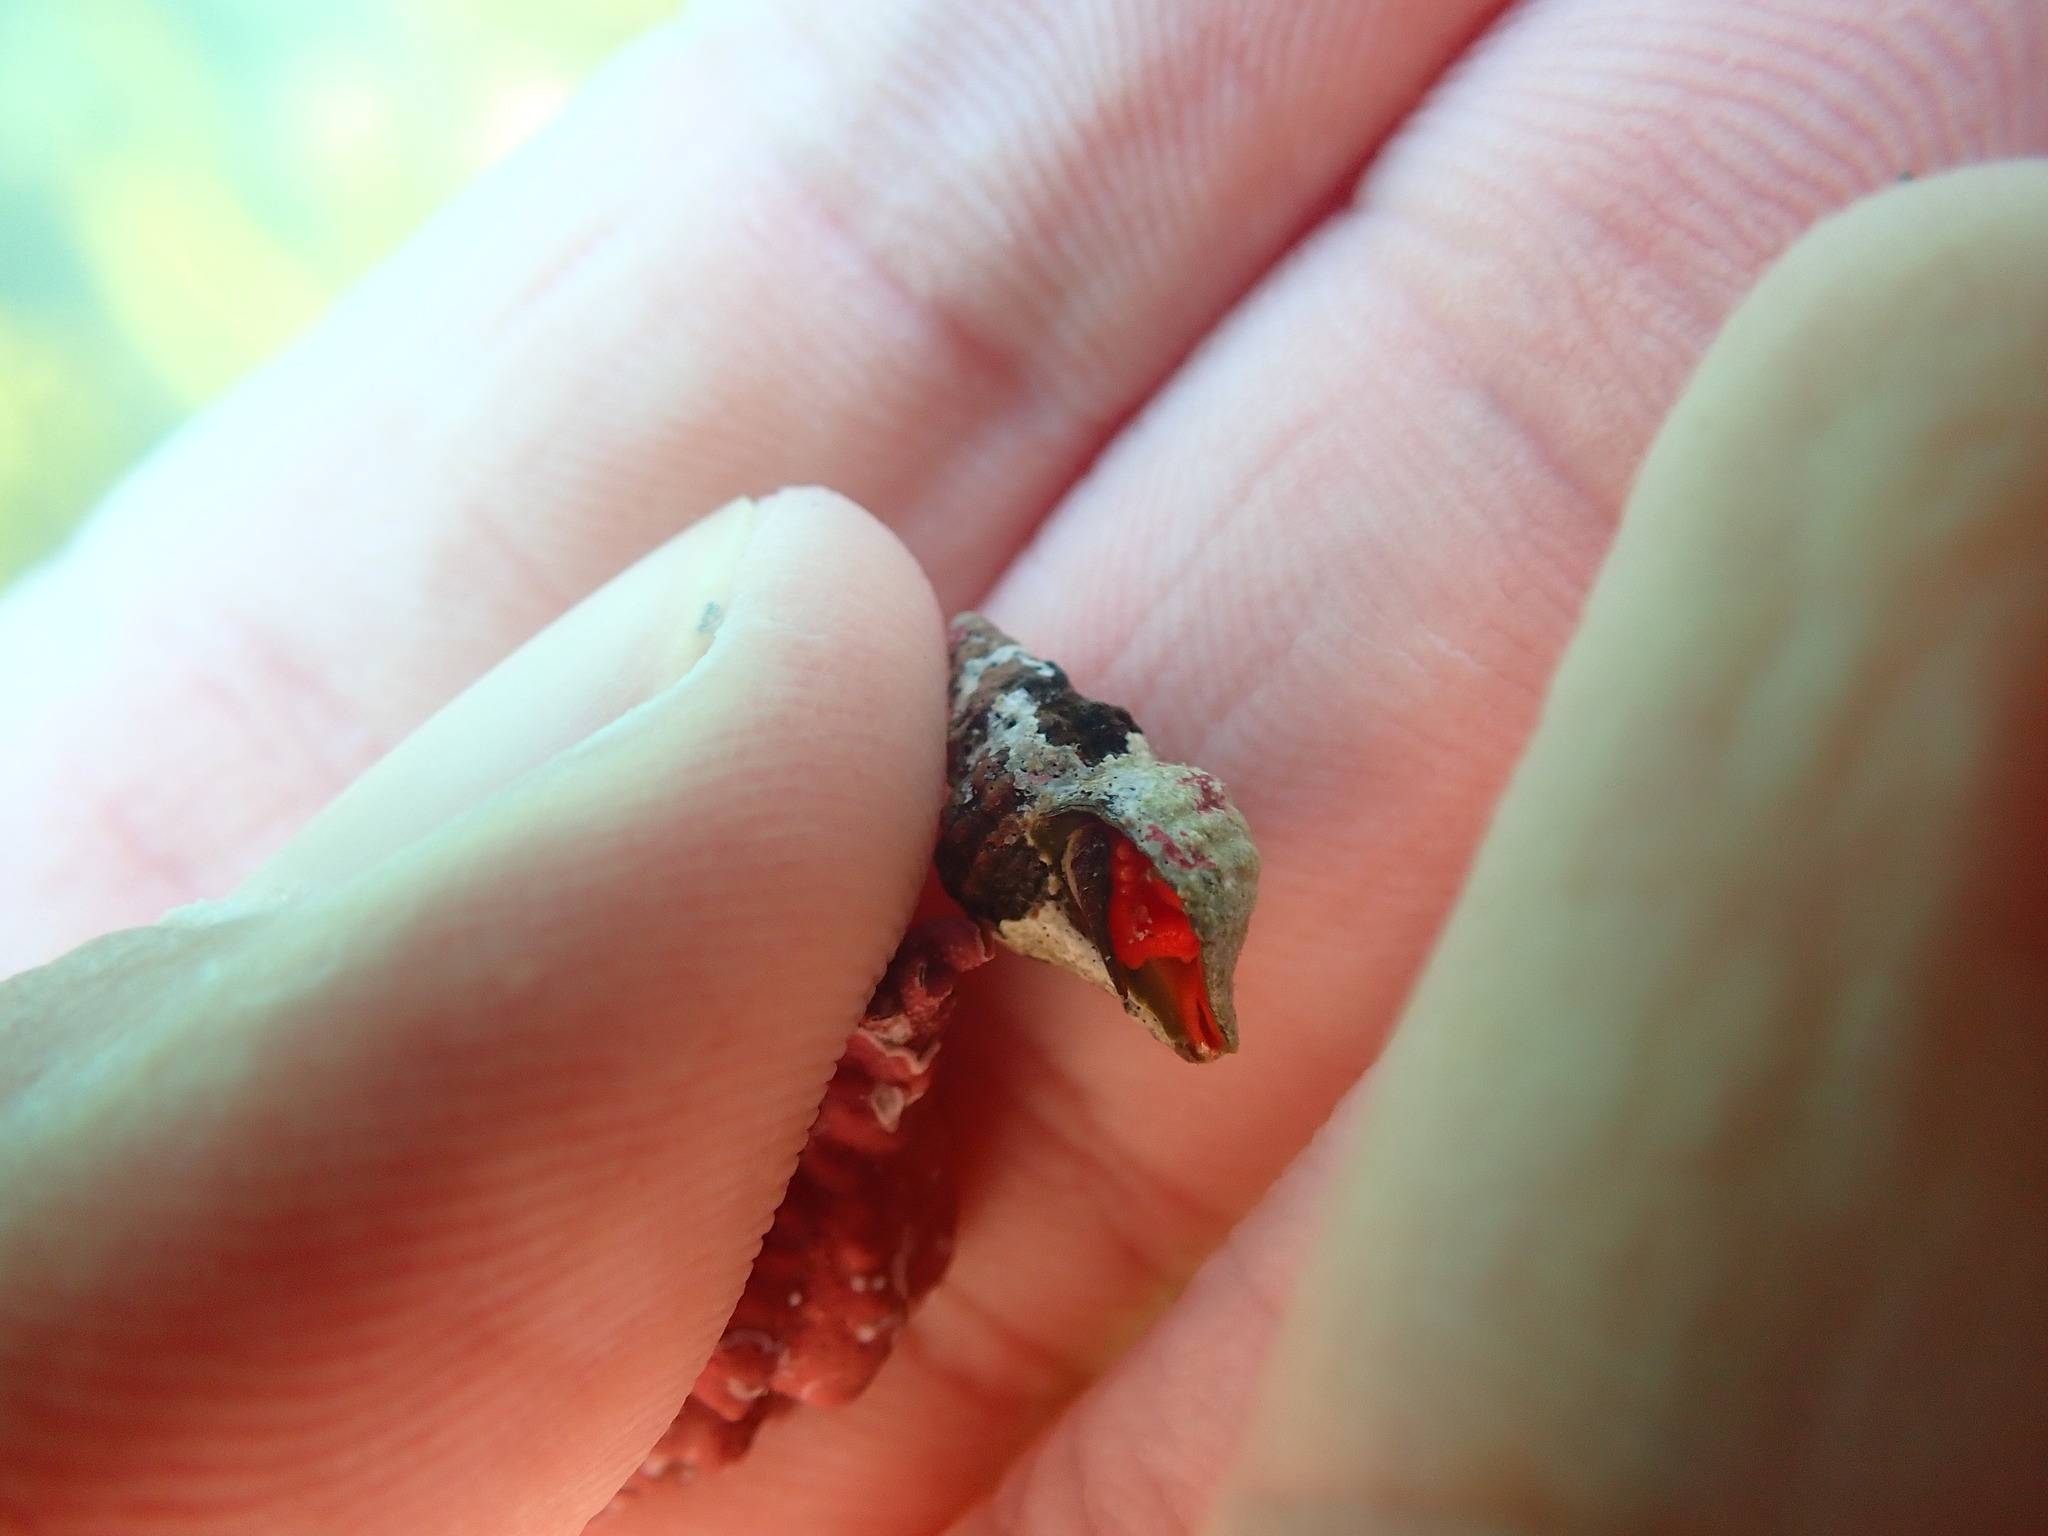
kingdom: Animalia
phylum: Mollusca
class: Gastropoda
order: Neogastropoda
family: Fasciolariidae
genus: Taron
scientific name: Taron dubius
